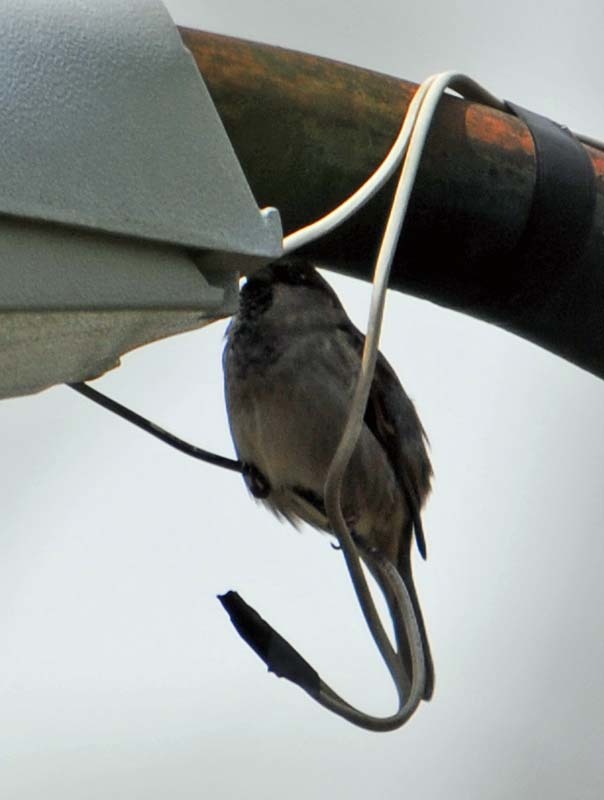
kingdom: Animalia
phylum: Chordata
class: Aves
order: Passeriformes
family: Passeridae
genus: Passer
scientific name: Passer domesticus
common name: House sparrow
